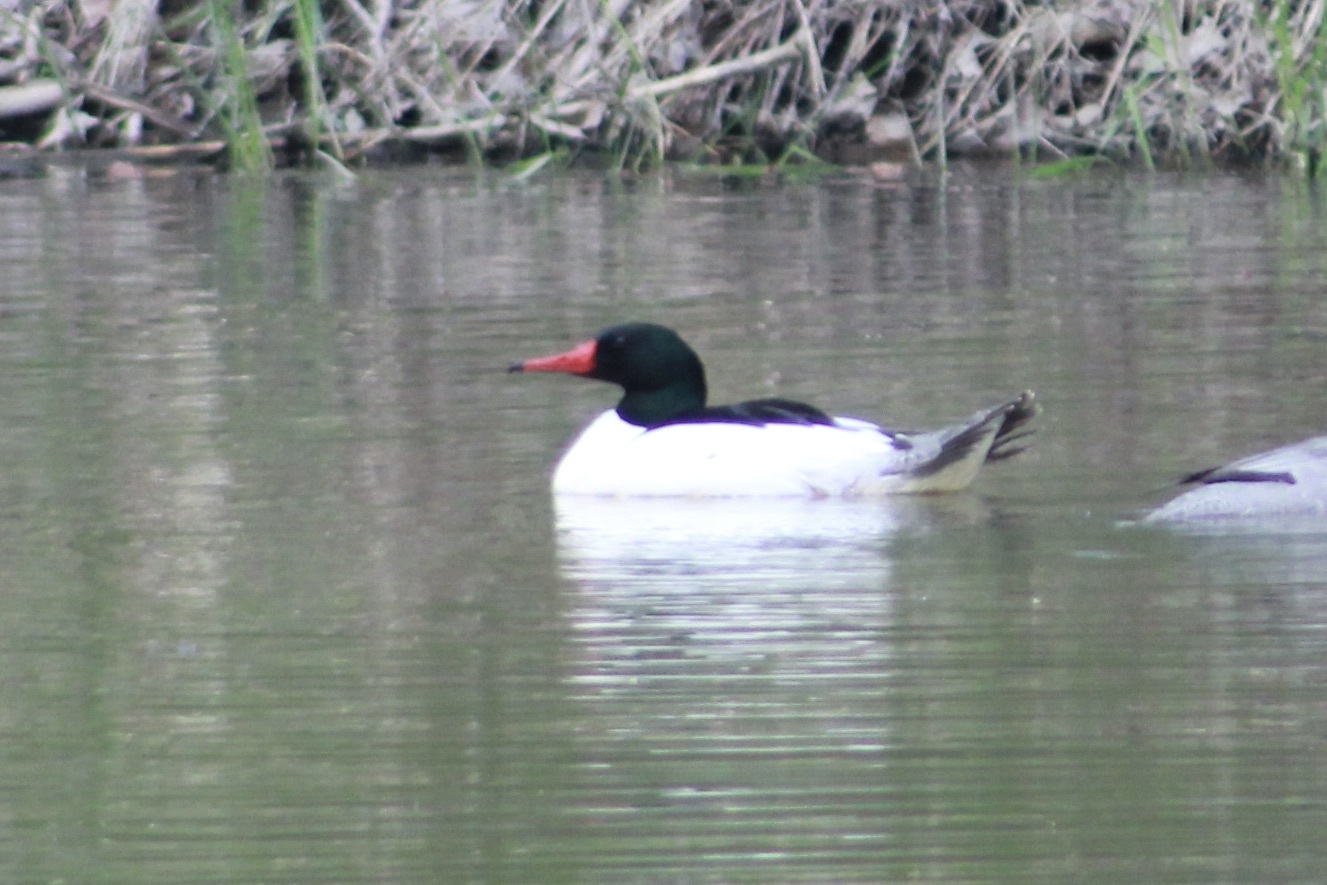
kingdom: Animalia
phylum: Chordata
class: Aves
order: Anseriformes
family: Anatidae
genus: Mergus
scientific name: Mergus merganser
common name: Common merganser
